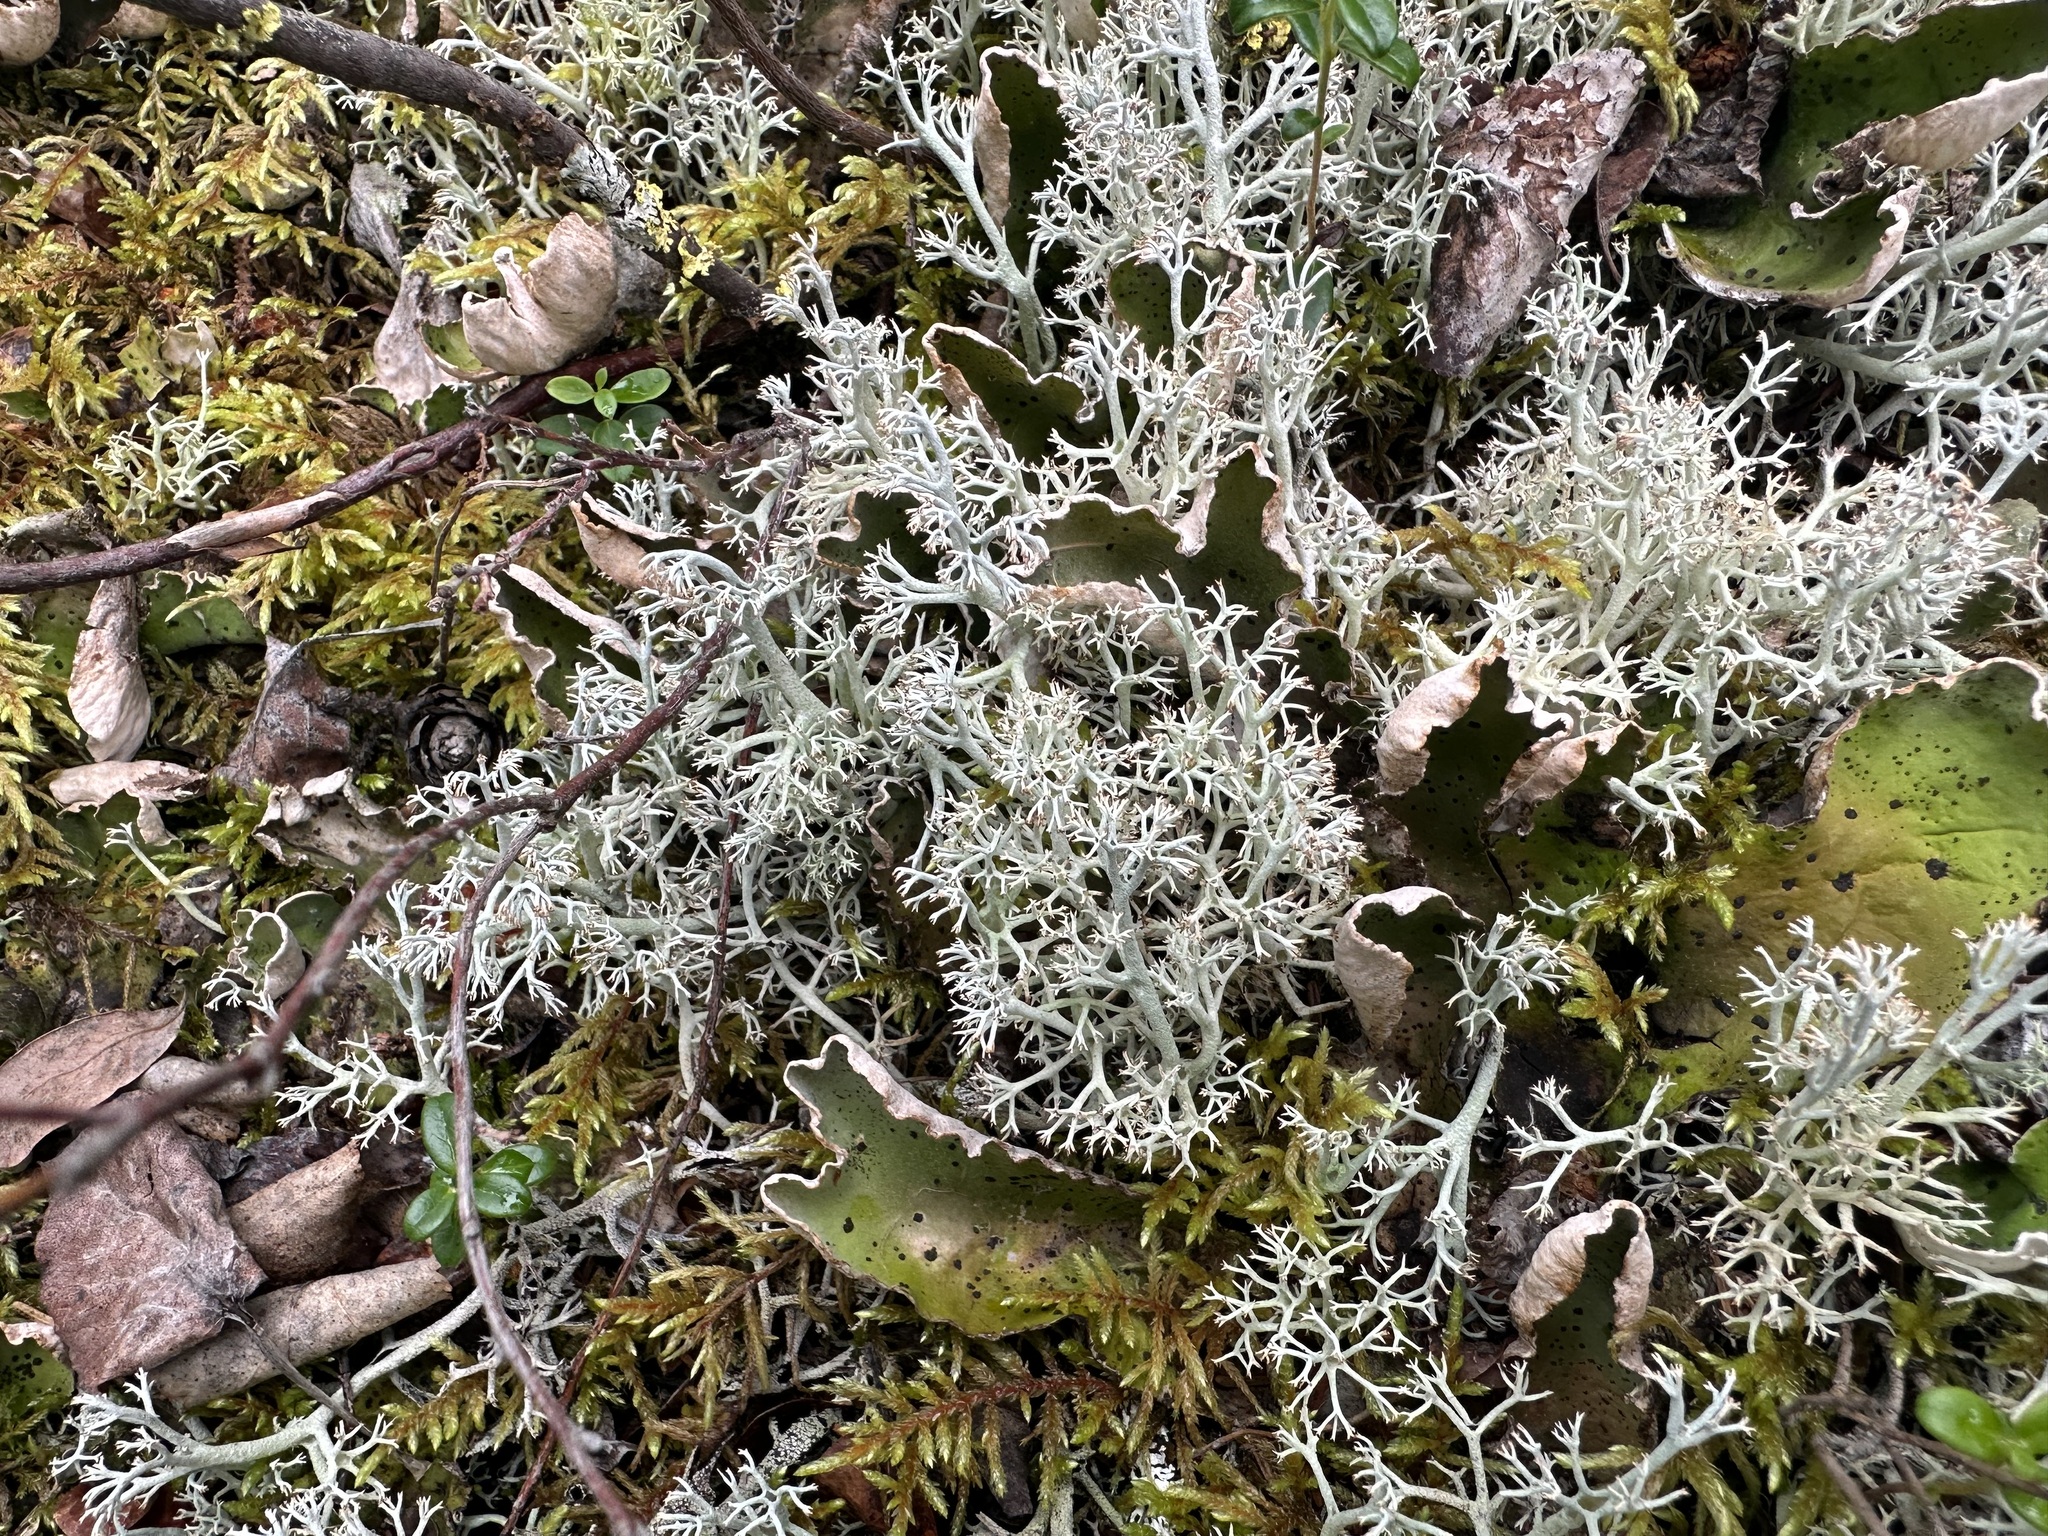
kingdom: Fungi
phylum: Ascomycota
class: Lecanoromycetes
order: Lecanorales
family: Cladoniaceae
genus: Cladonia
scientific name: Cladonia stygia
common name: Black-footed reindeer lichen
